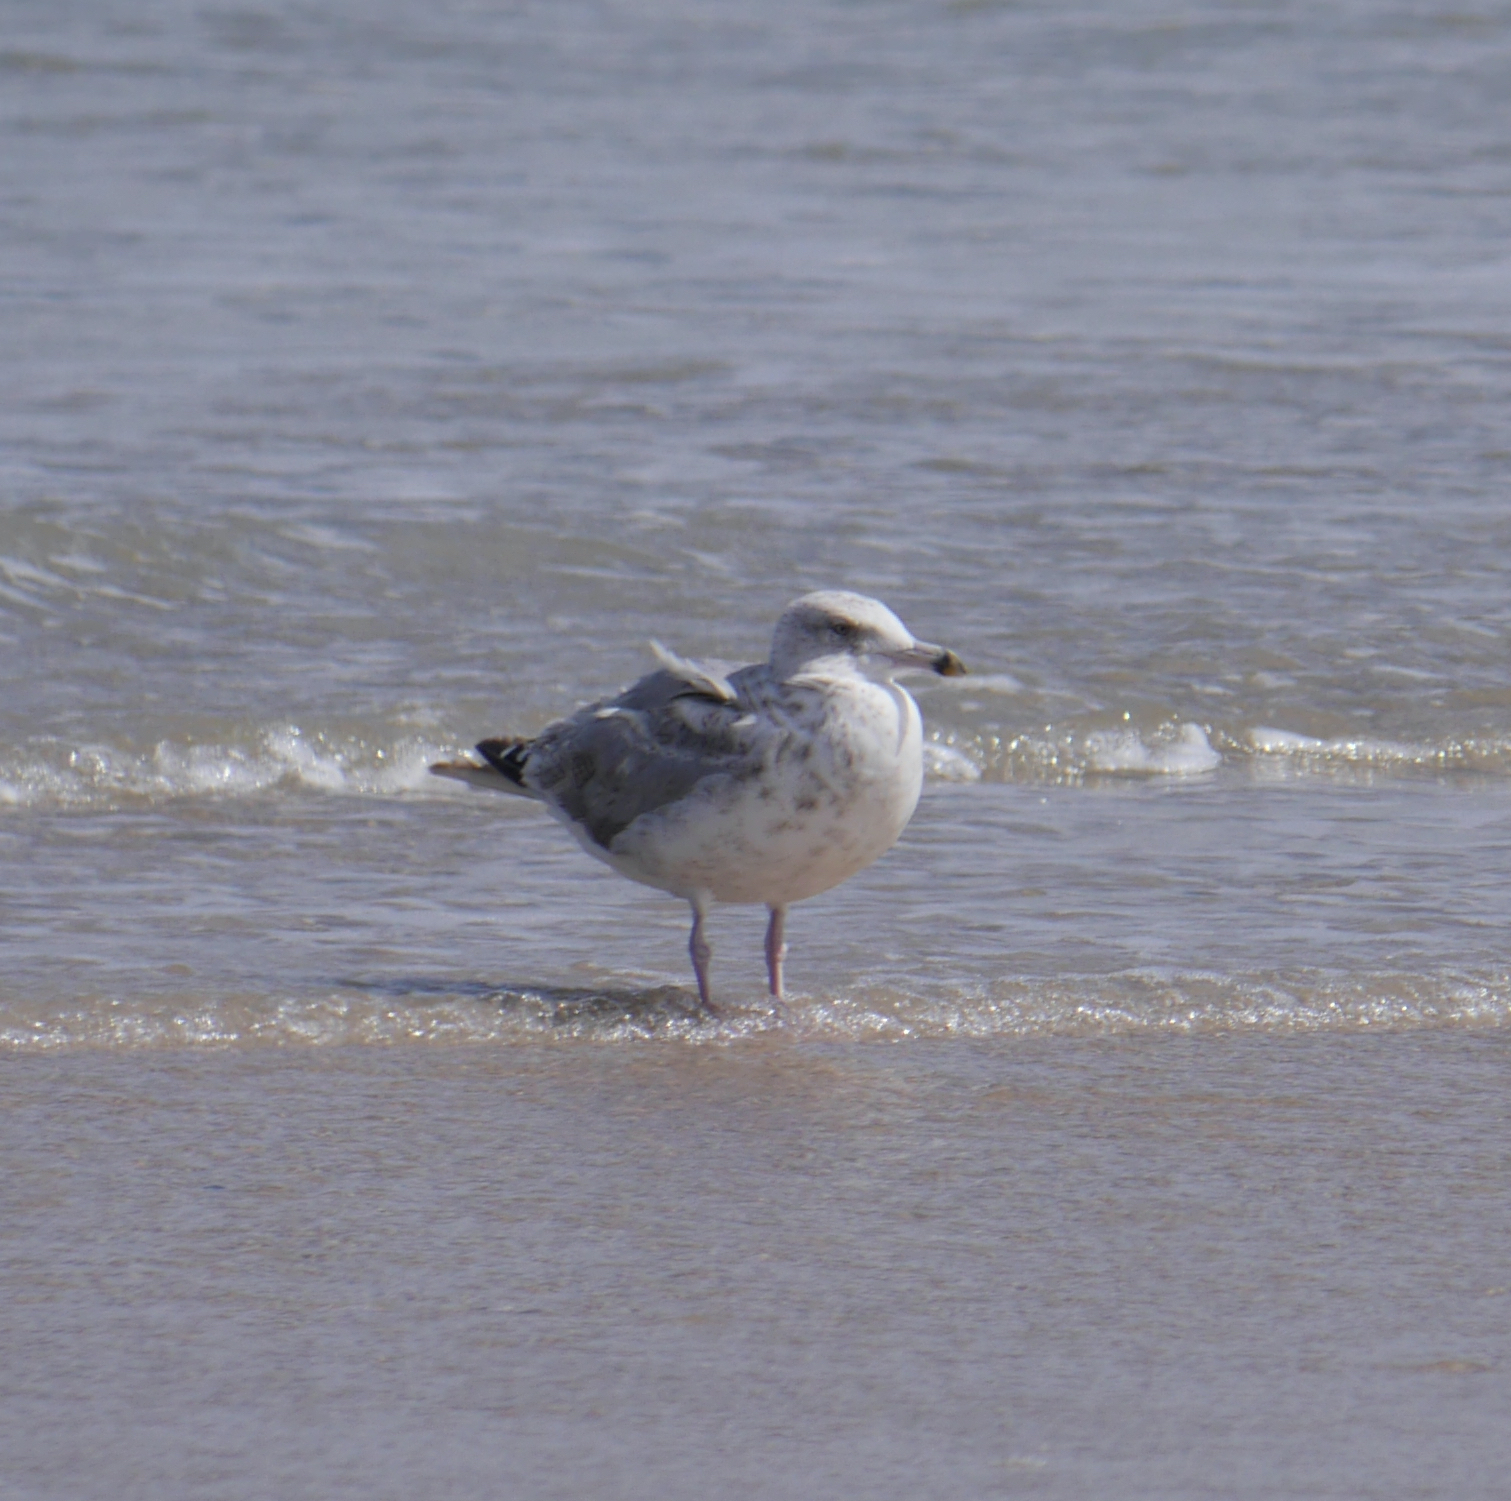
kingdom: Animalia
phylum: Chordata
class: Aves
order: Charadriiformes
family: Laridae
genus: Larus
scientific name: Larus argentatus
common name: Herring gull
